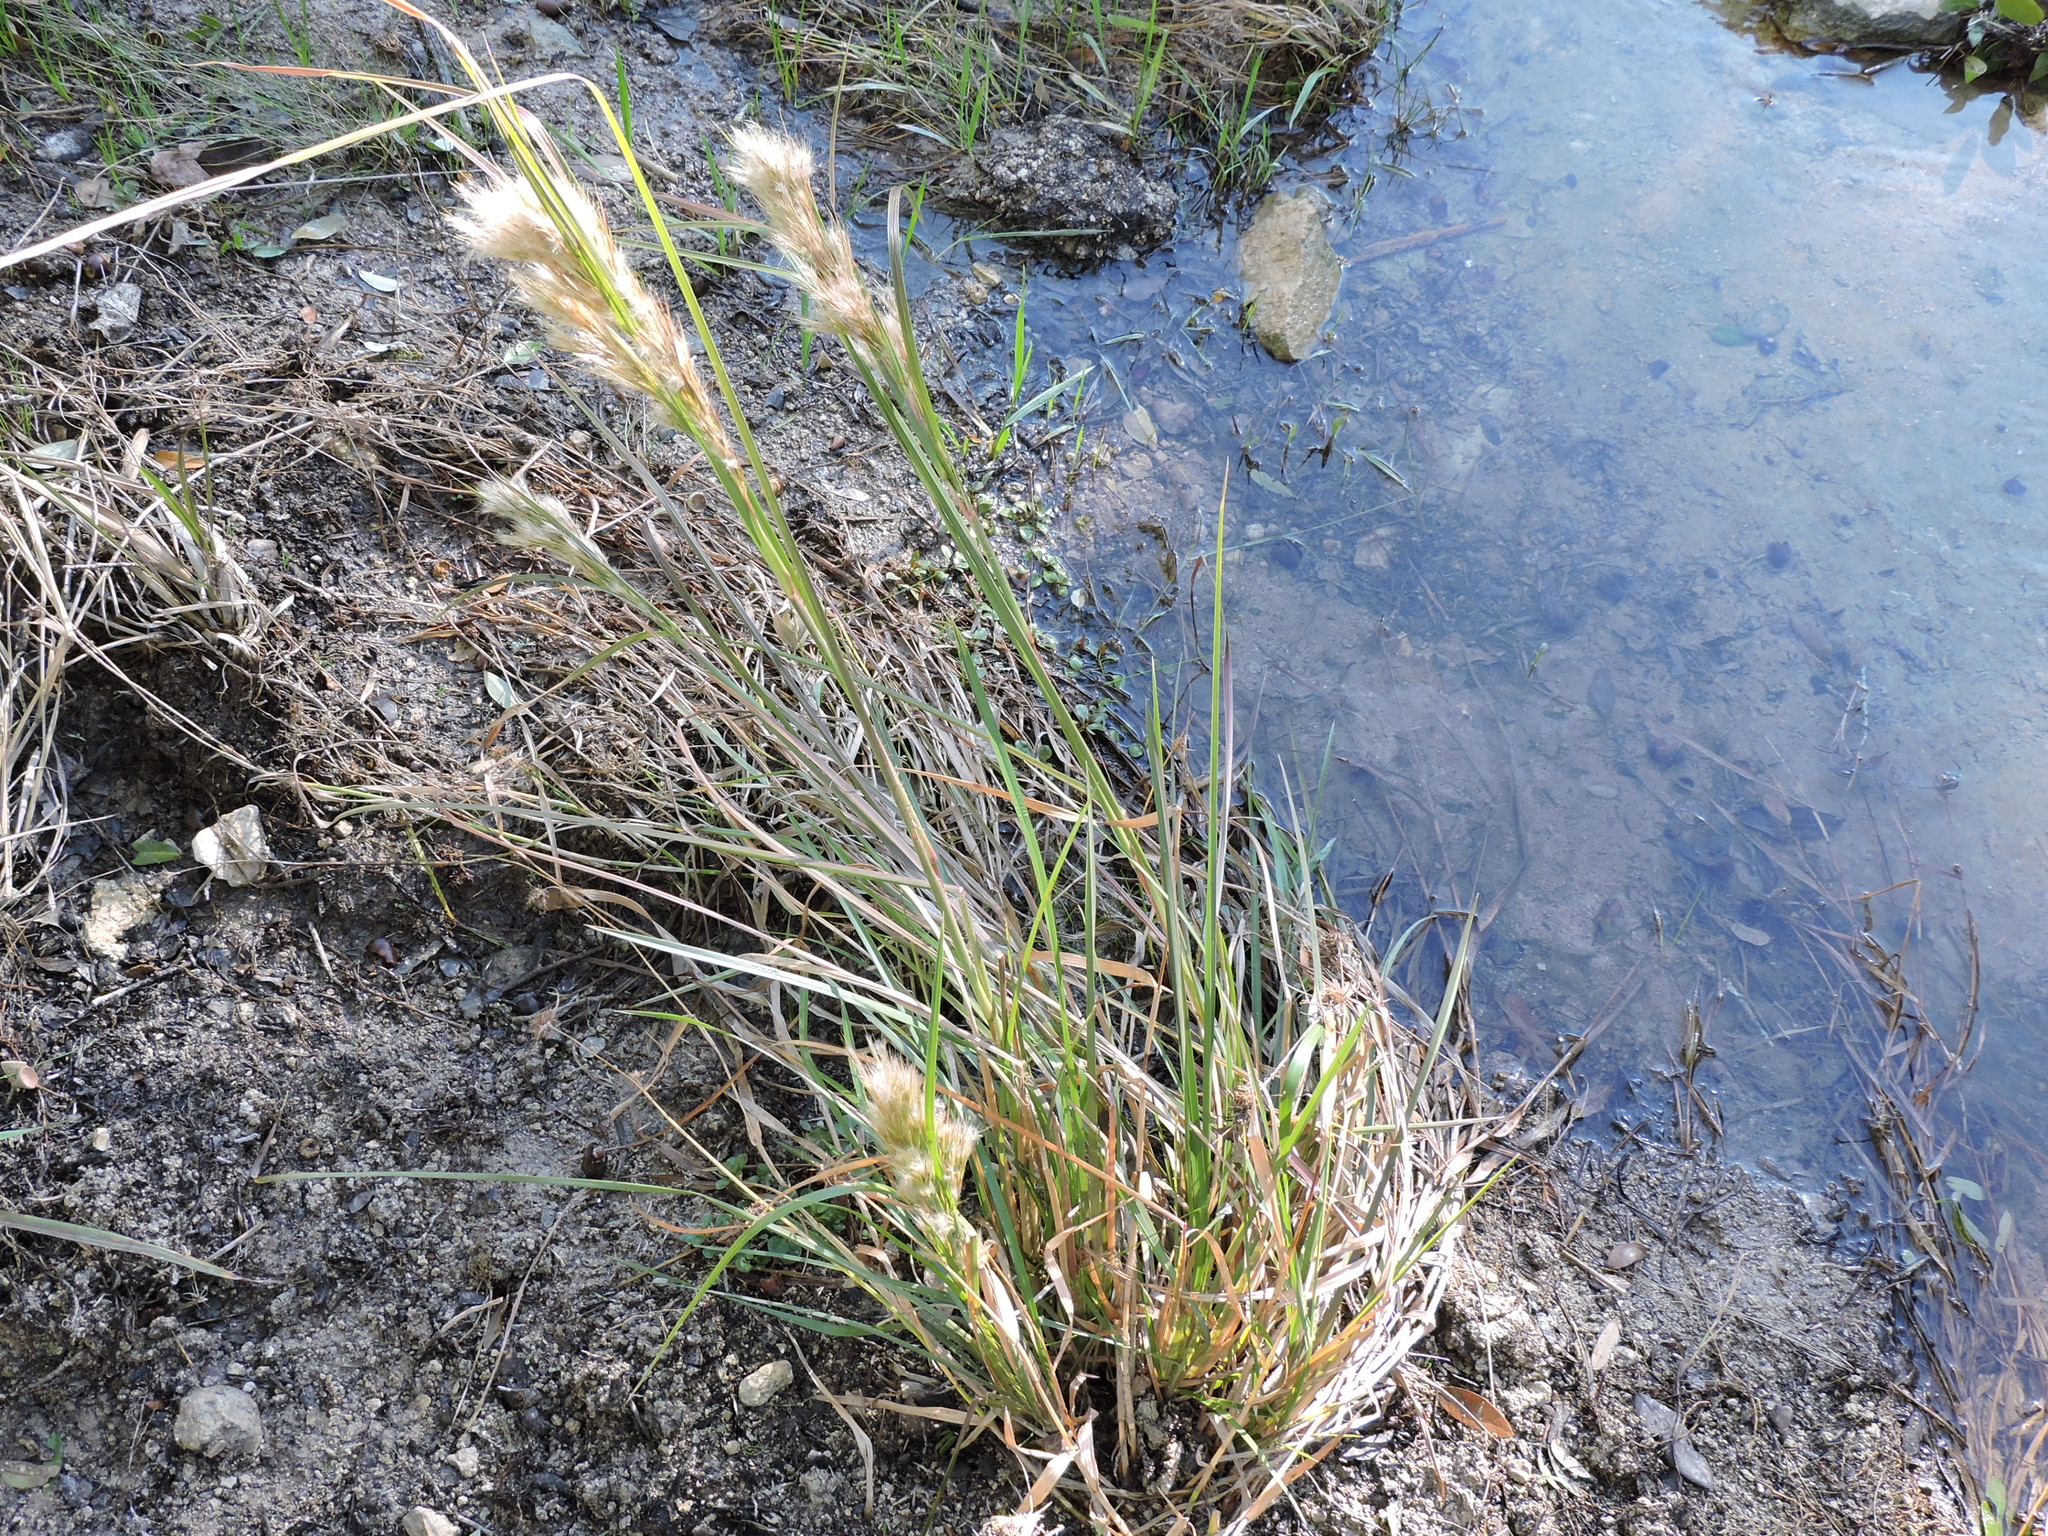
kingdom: Plantae
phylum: Tracheophyta
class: Liliopsida
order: Poales
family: Poaceae
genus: Andropogon
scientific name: Andropogon tenuispatheus
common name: Bushy bluestem
